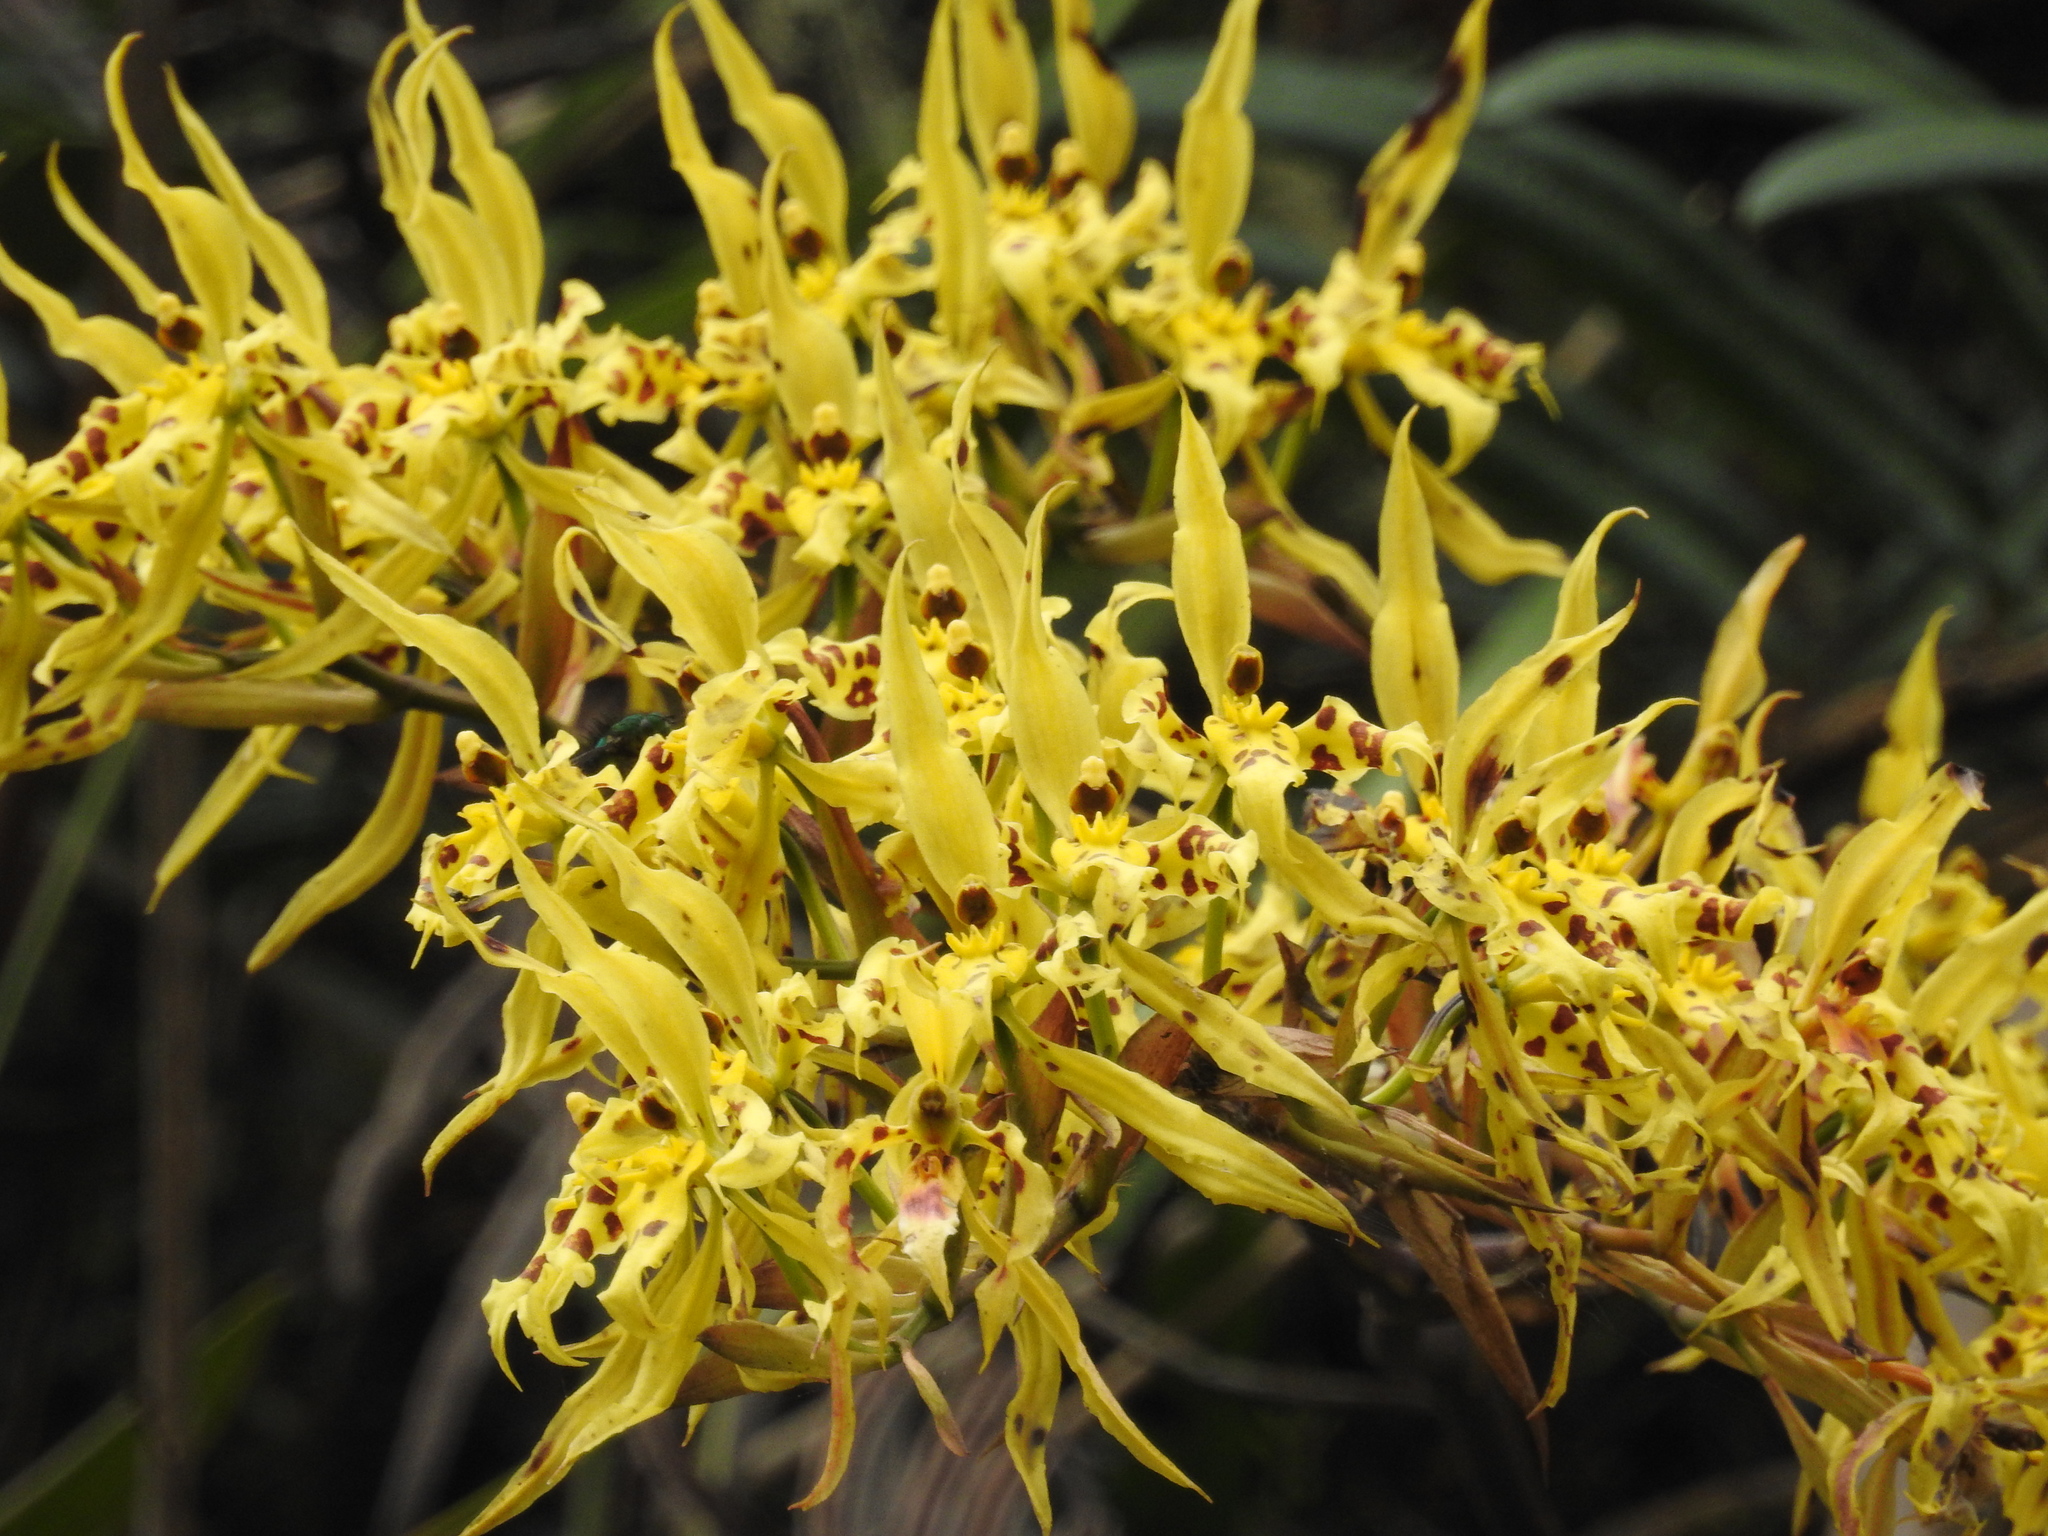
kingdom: Plantae
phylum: Tracheophyta
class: Liliopsida
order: Asparagales
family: Orchidaceae
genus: Cyrtochilum
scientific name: Cyrtochilum pardinum
